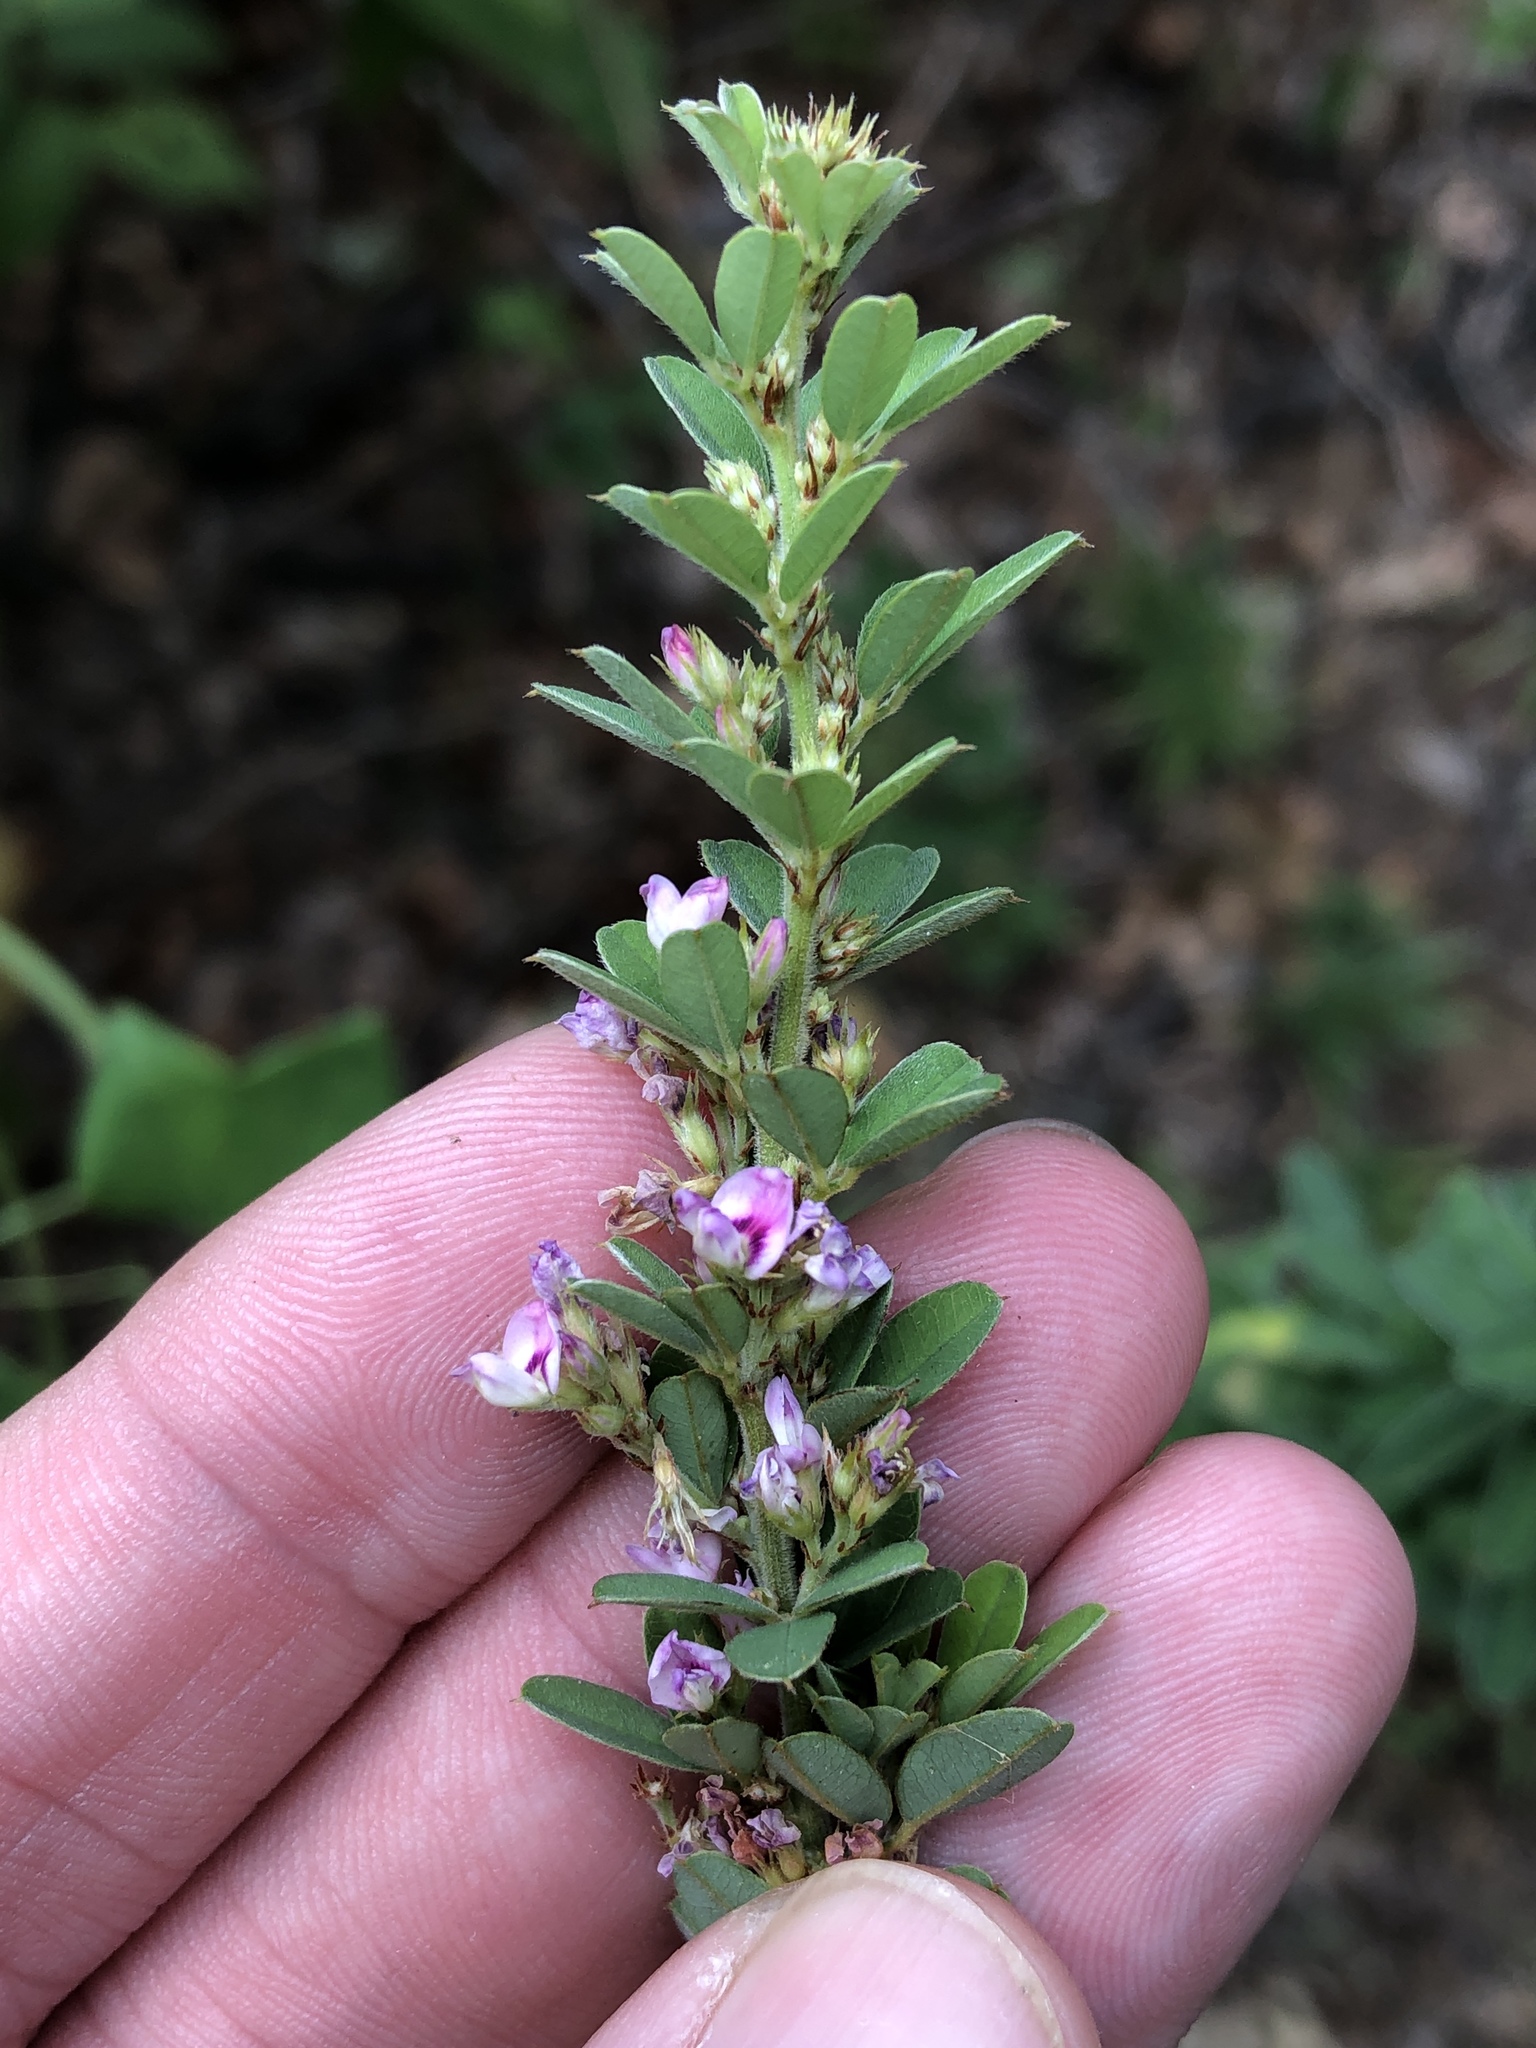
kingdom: Plantae
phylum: Tracheophyta
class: Magnoliopsida
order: Fabales
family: Fabaceae
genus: Lespedeza
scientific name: Lespedeza virginica
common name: Slender bush-clover
